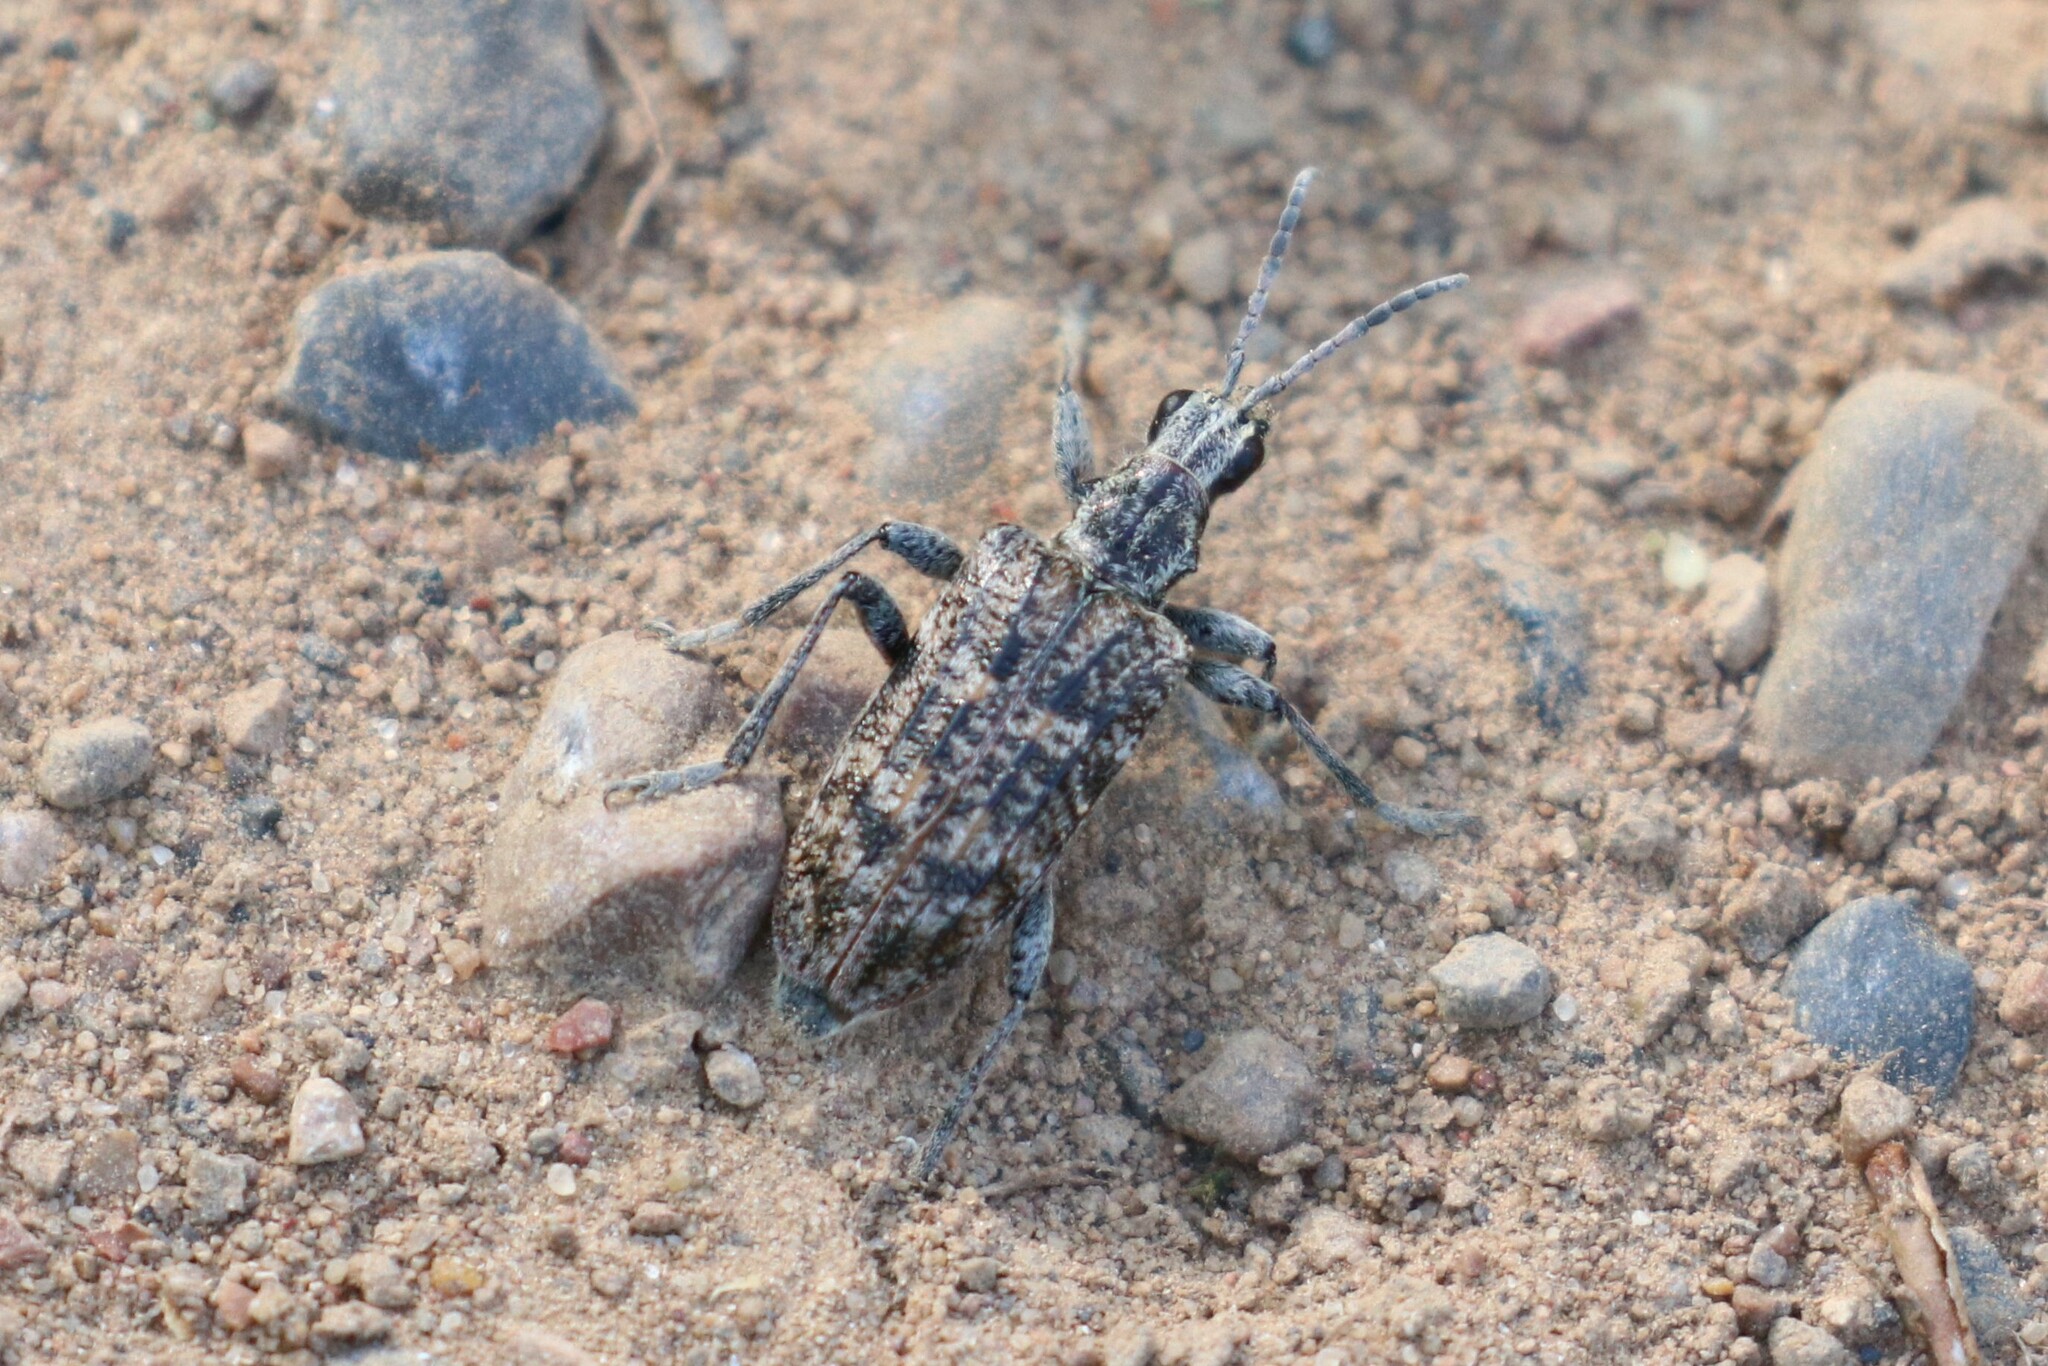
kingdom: Animalia
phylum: Arthropoda
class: Insecta
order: Coleoptera
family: Cerambycidae
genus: Rhagium
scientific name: Rhagium inquisitor
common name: Ribbed pine borer
